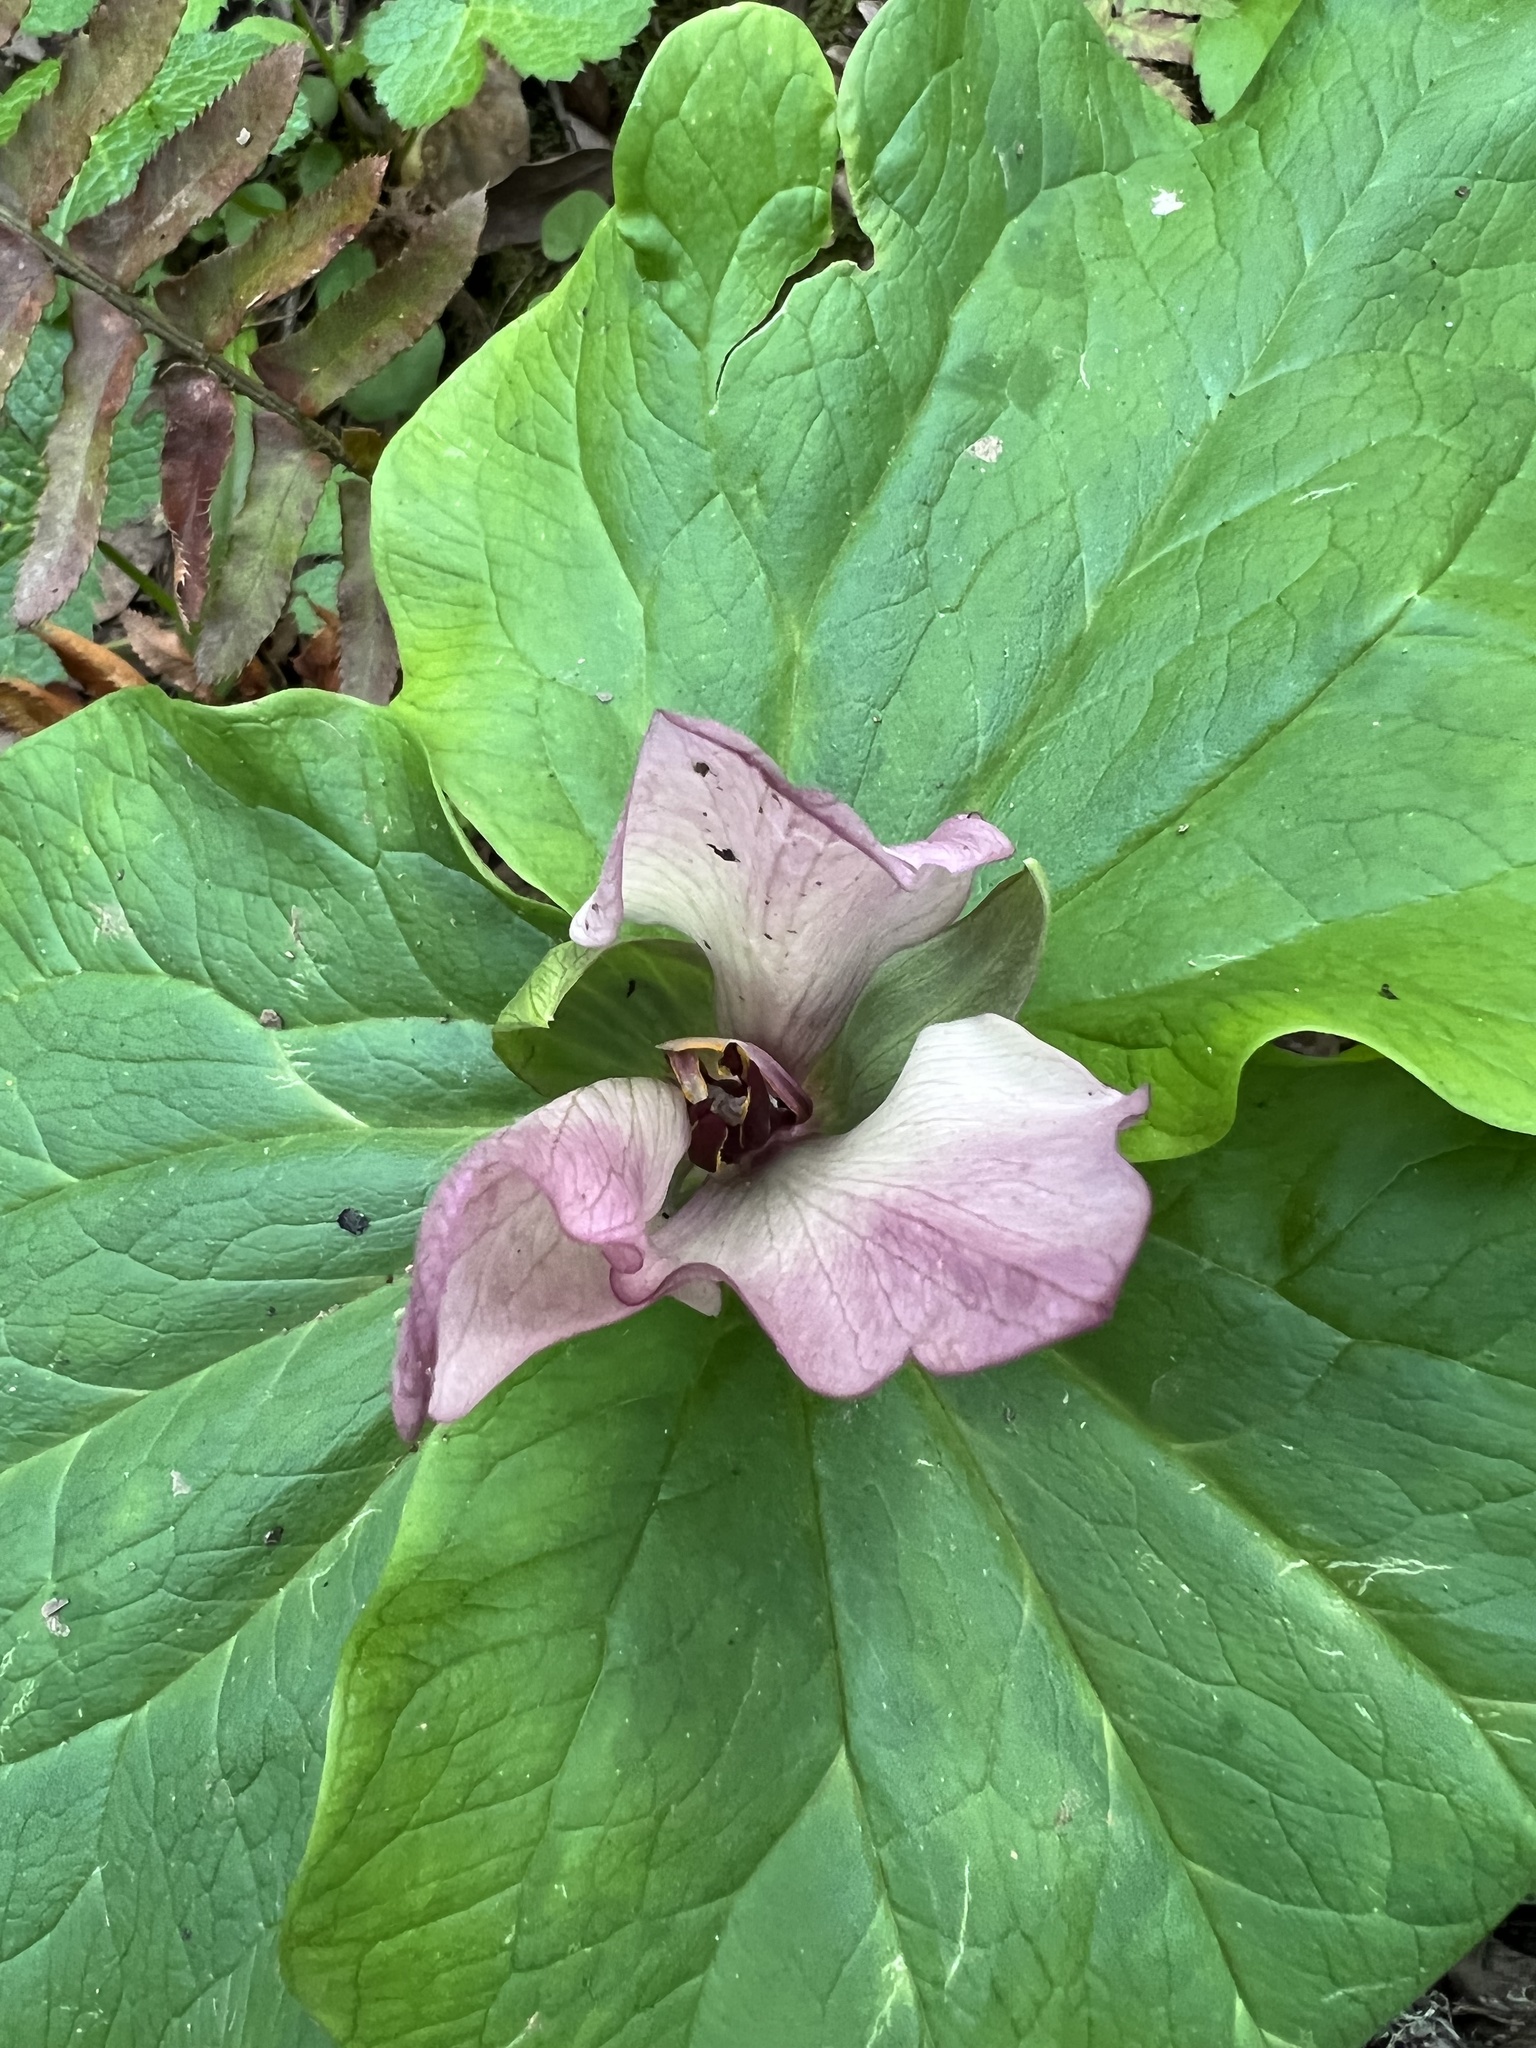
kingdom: Plantae
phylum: Tracheophyta
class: Liliopsida
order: Liliales
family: Melanthiaceae
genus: Trillium
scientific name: Trillium chloropetalum
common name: Giant trillium
